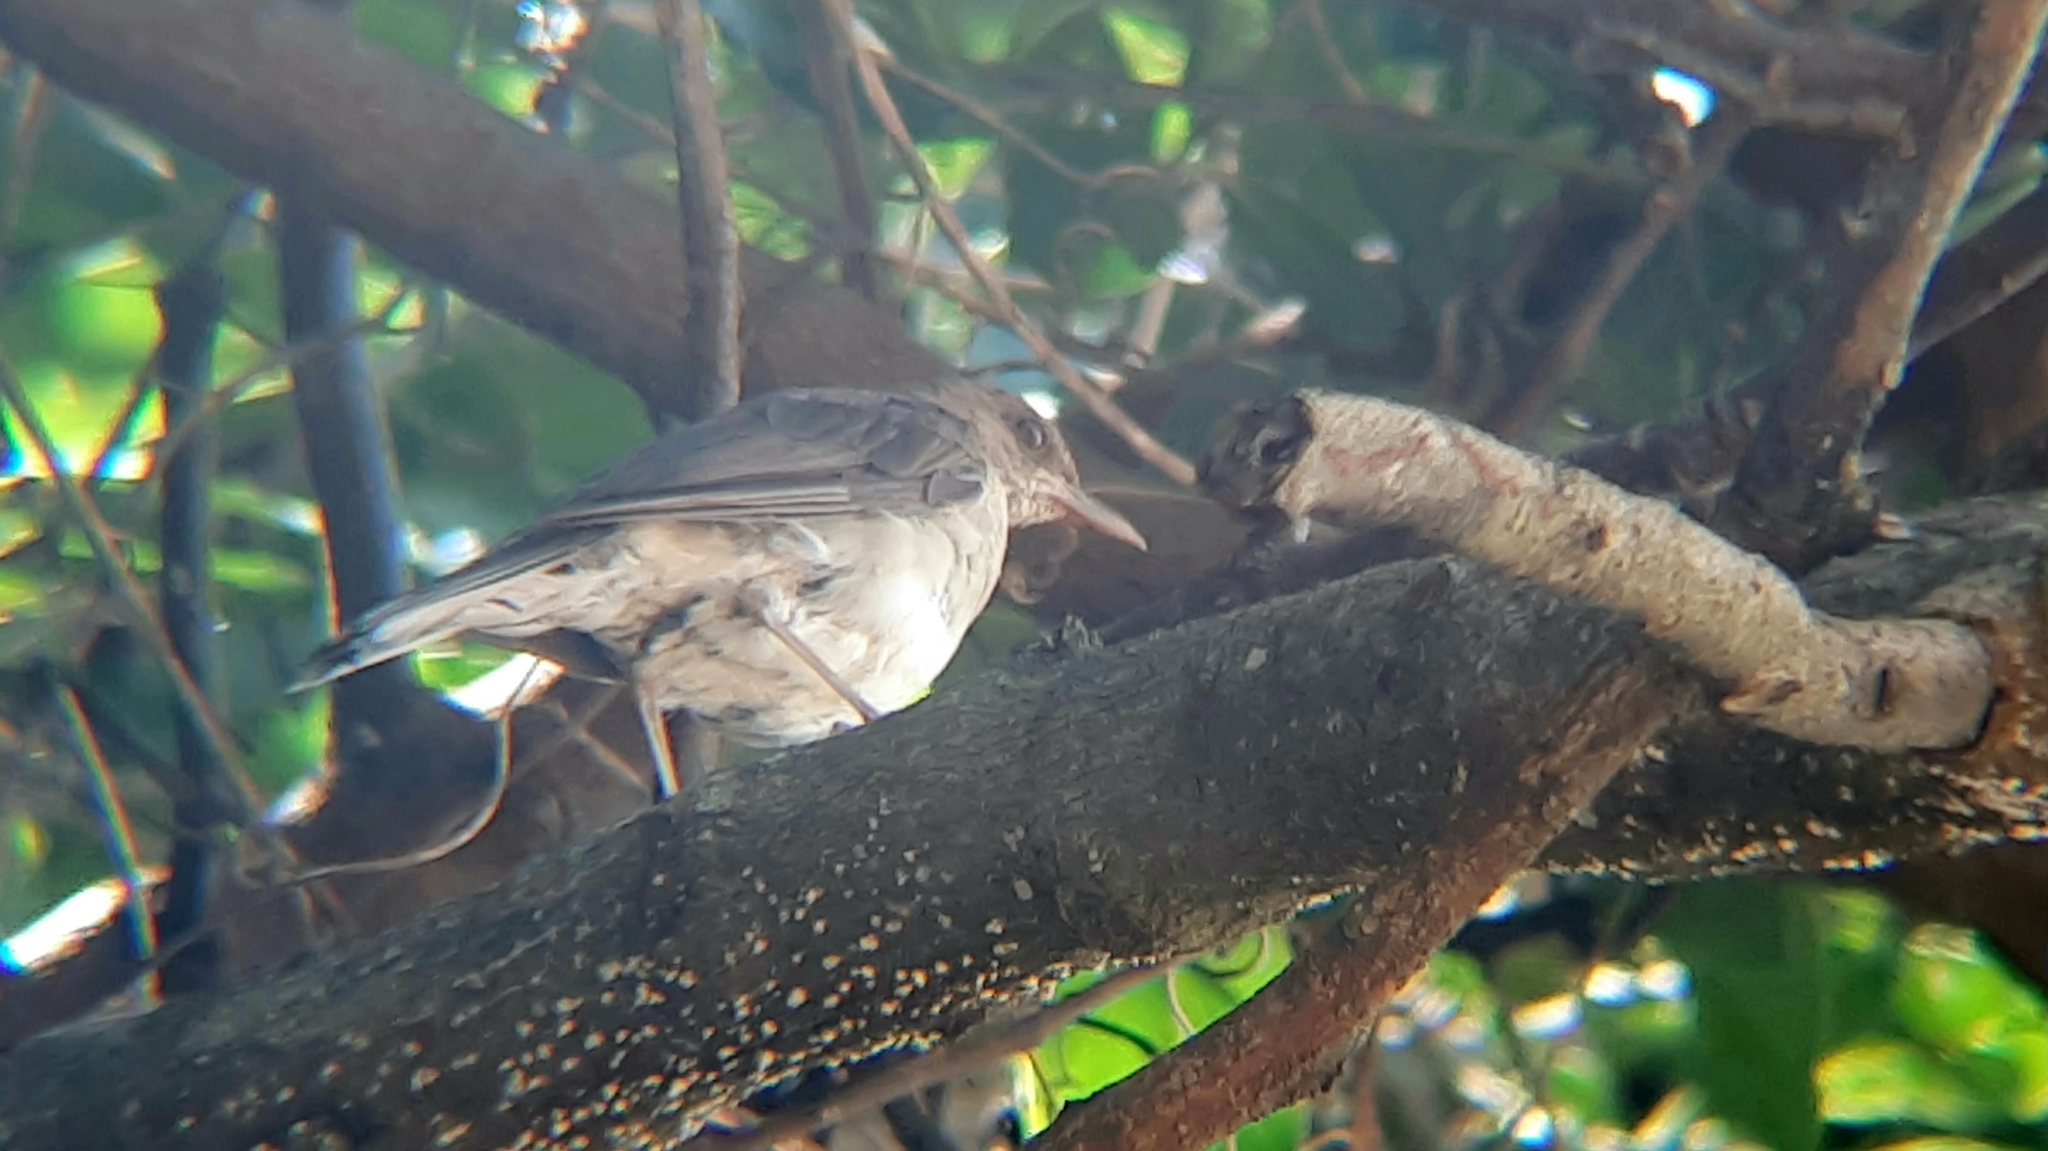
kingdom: Animalia
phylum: Chordata
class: Aves
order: Passeriformes
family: Turdidae
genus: Turdus
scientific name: Turdus amaurochalinus
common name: Creamy-bellied thrush
